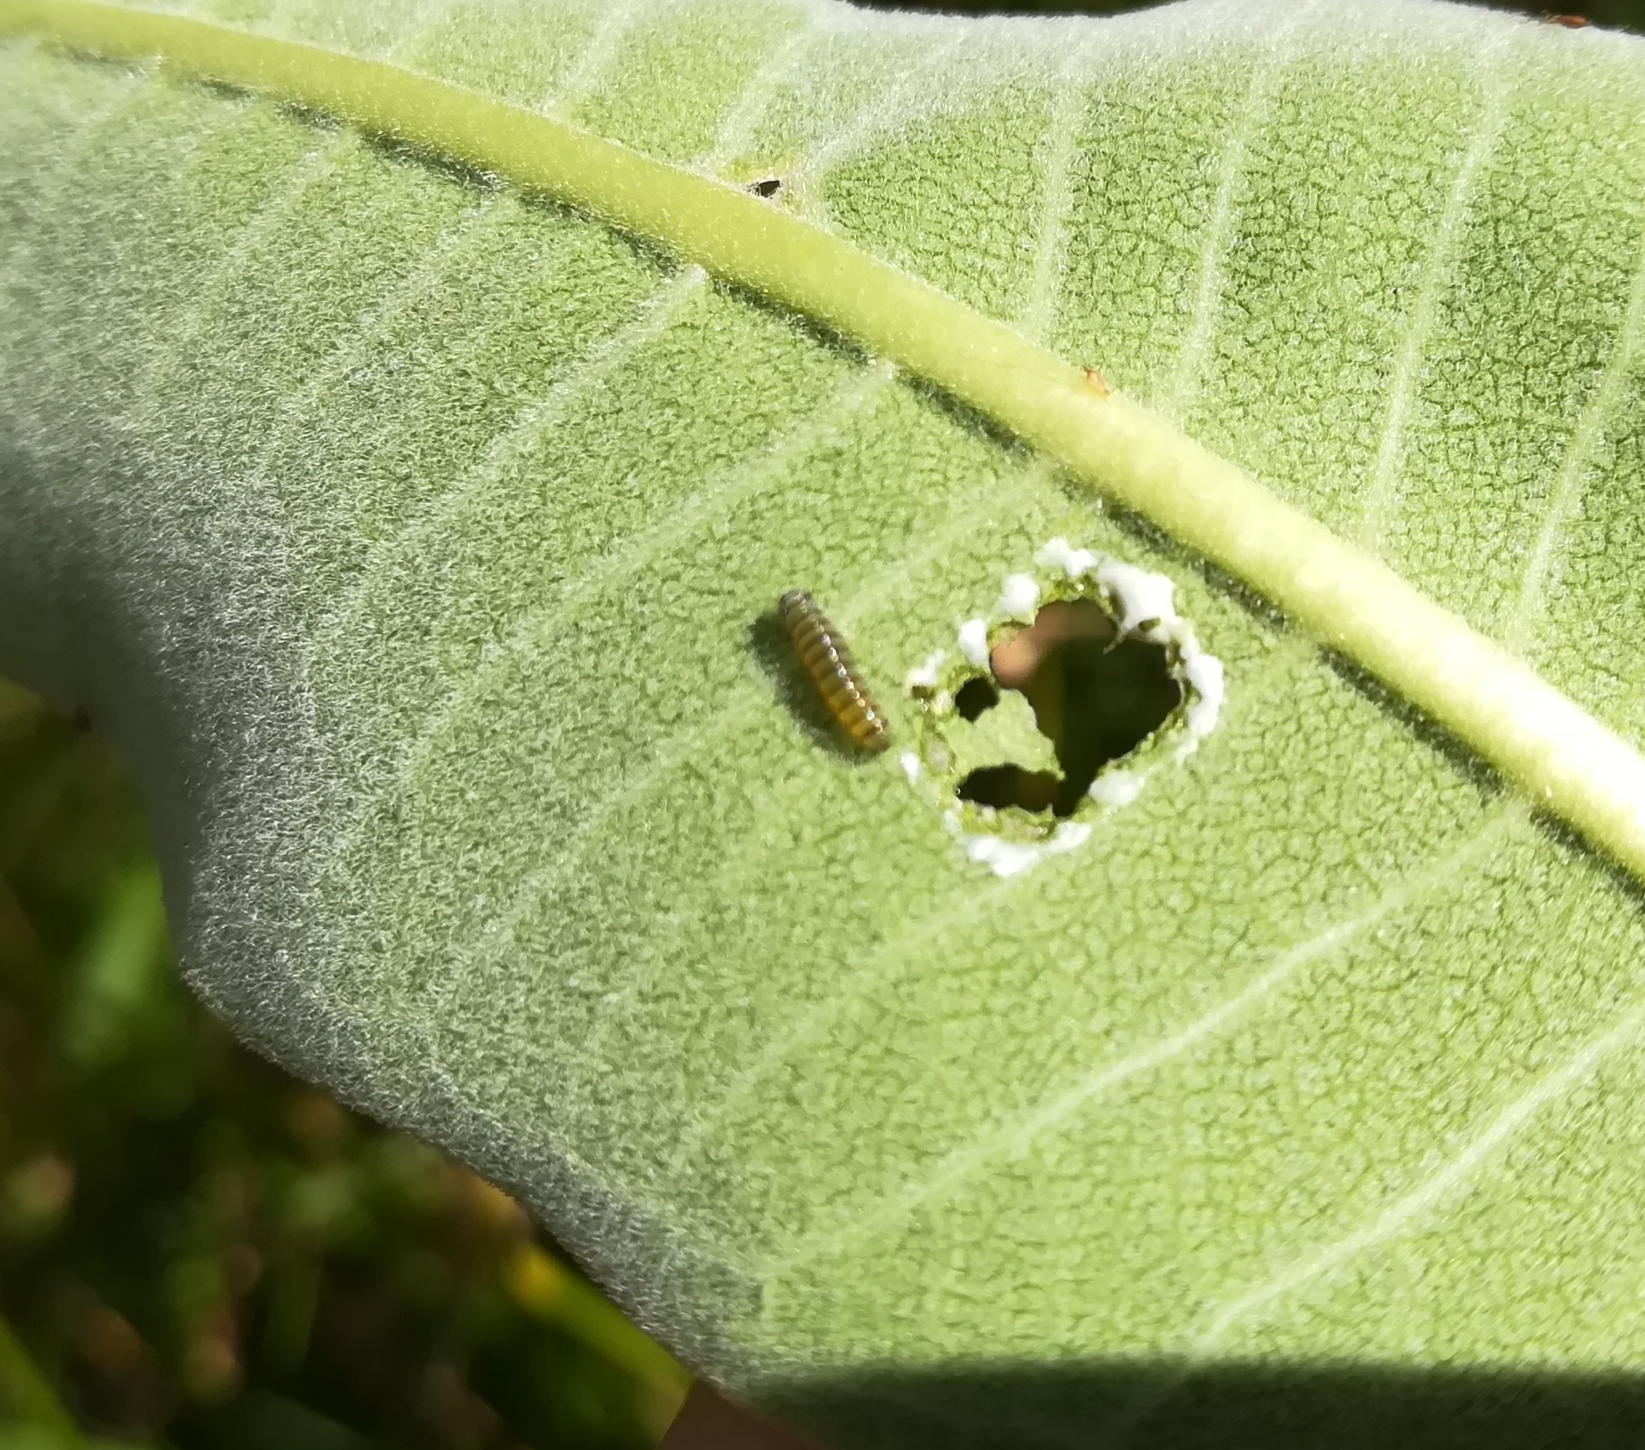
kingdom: Animalia
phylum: Arthropoda
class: Insecta
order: Lepidoptera
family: Nymphalidae
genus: Danaus
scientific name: Danaus plexippus
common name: Monarch
